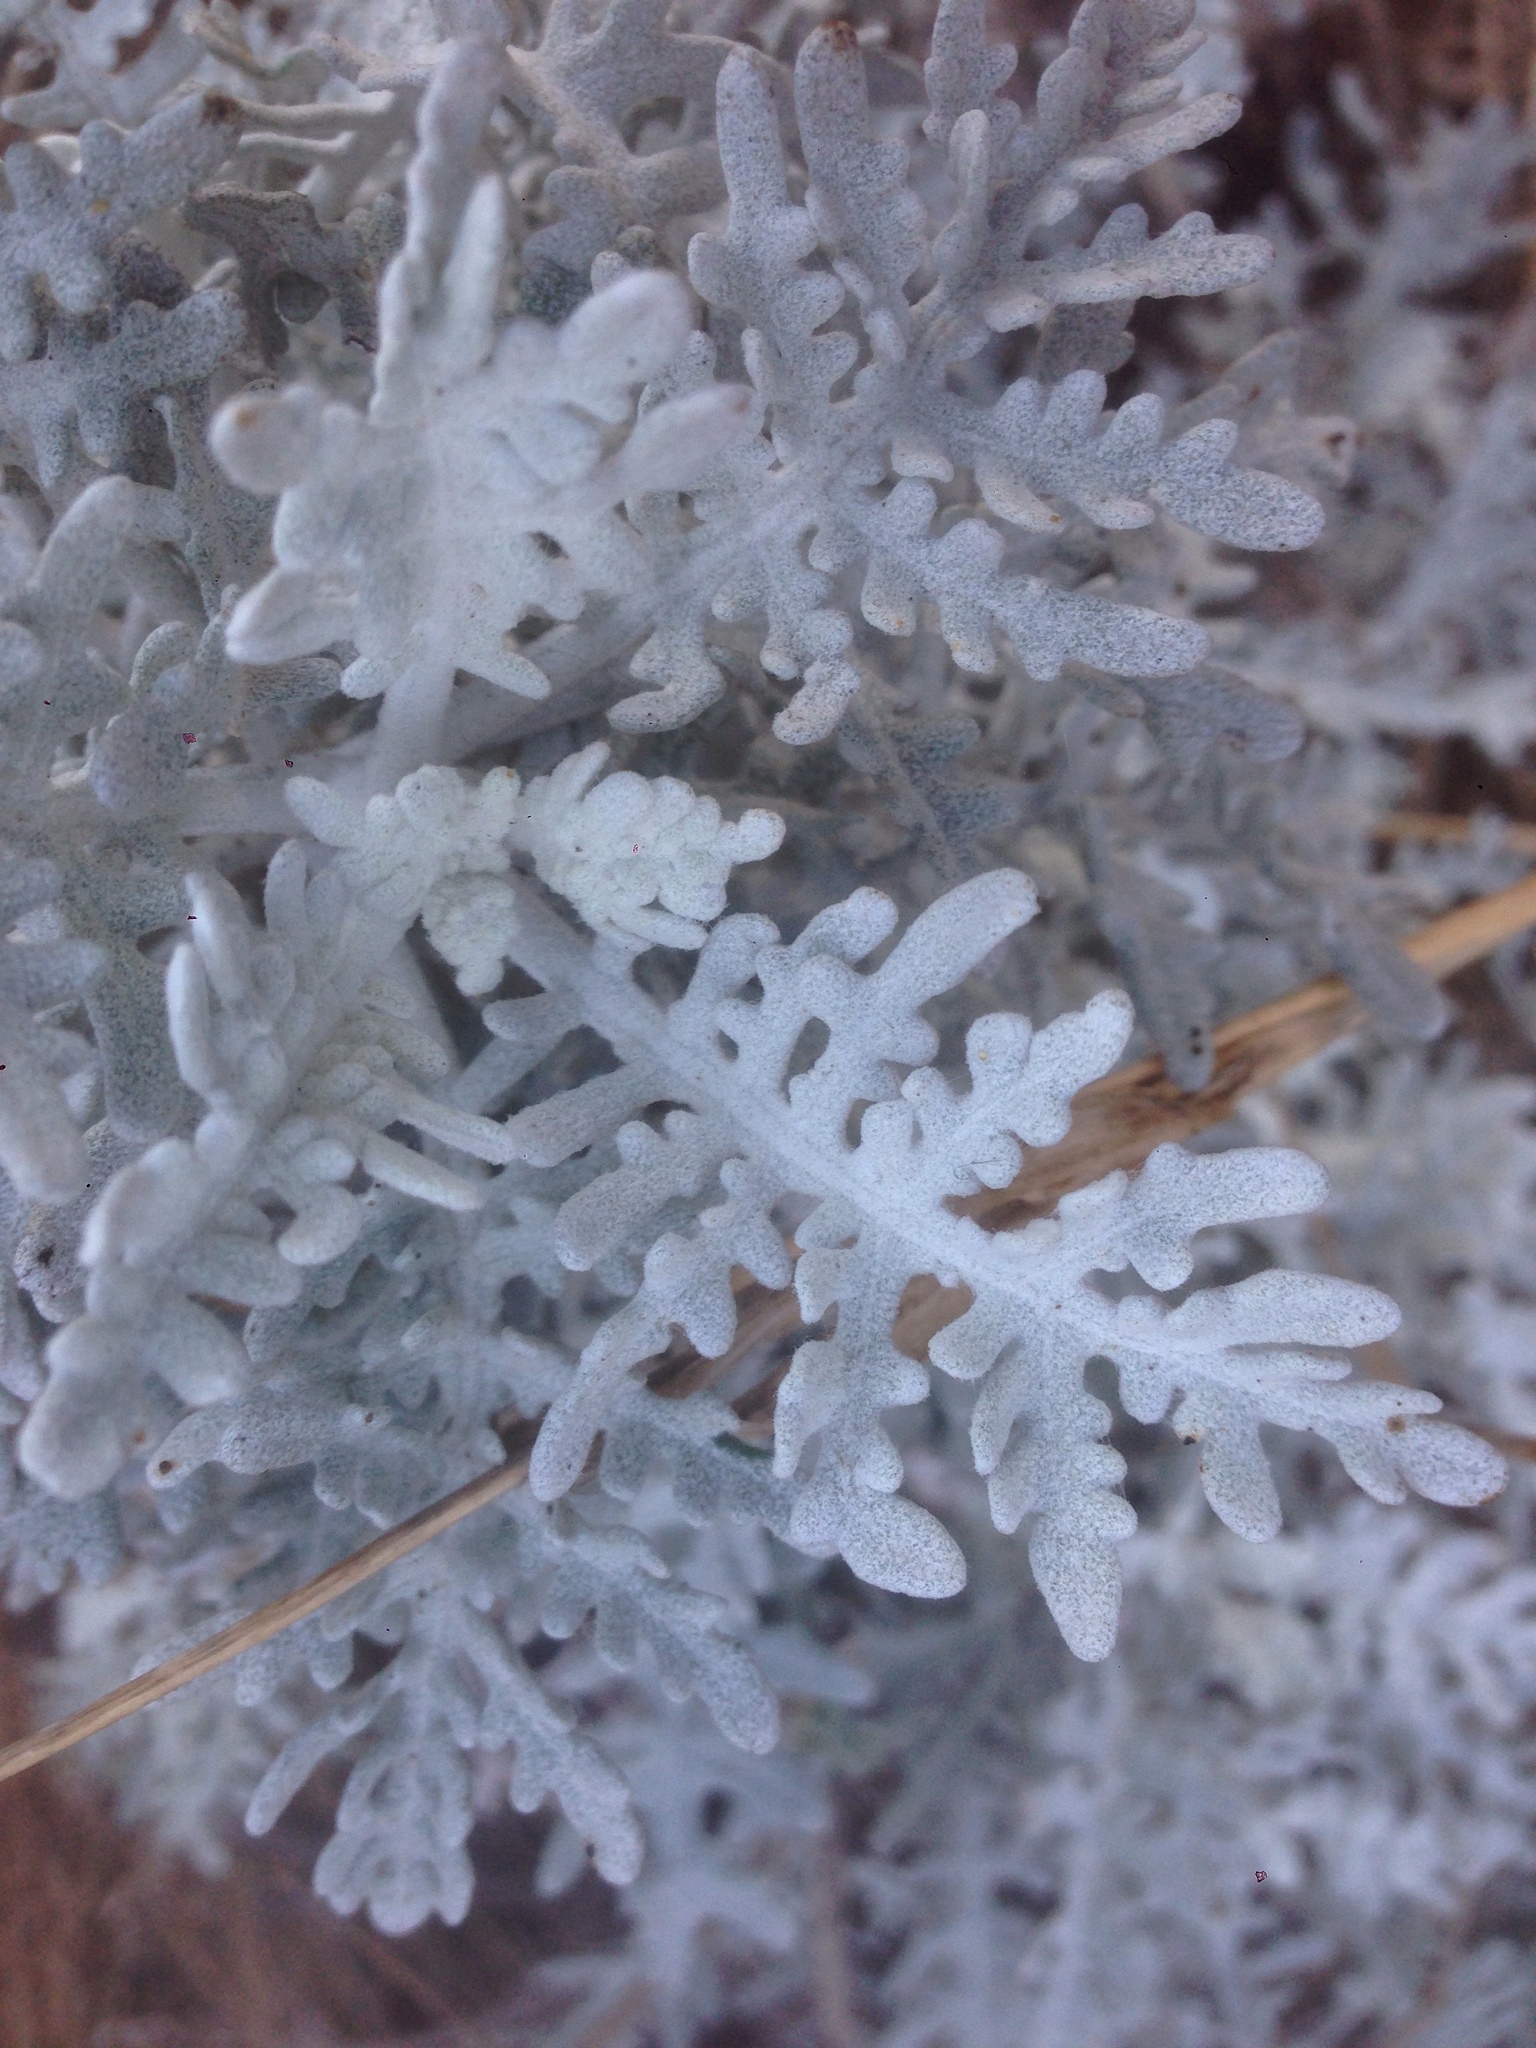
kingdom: Plantae
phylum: Tracheophyta
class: Magnoliopsida
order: Asterales
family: Asteraceae
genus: Constancea
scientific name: Constancea nevinii
